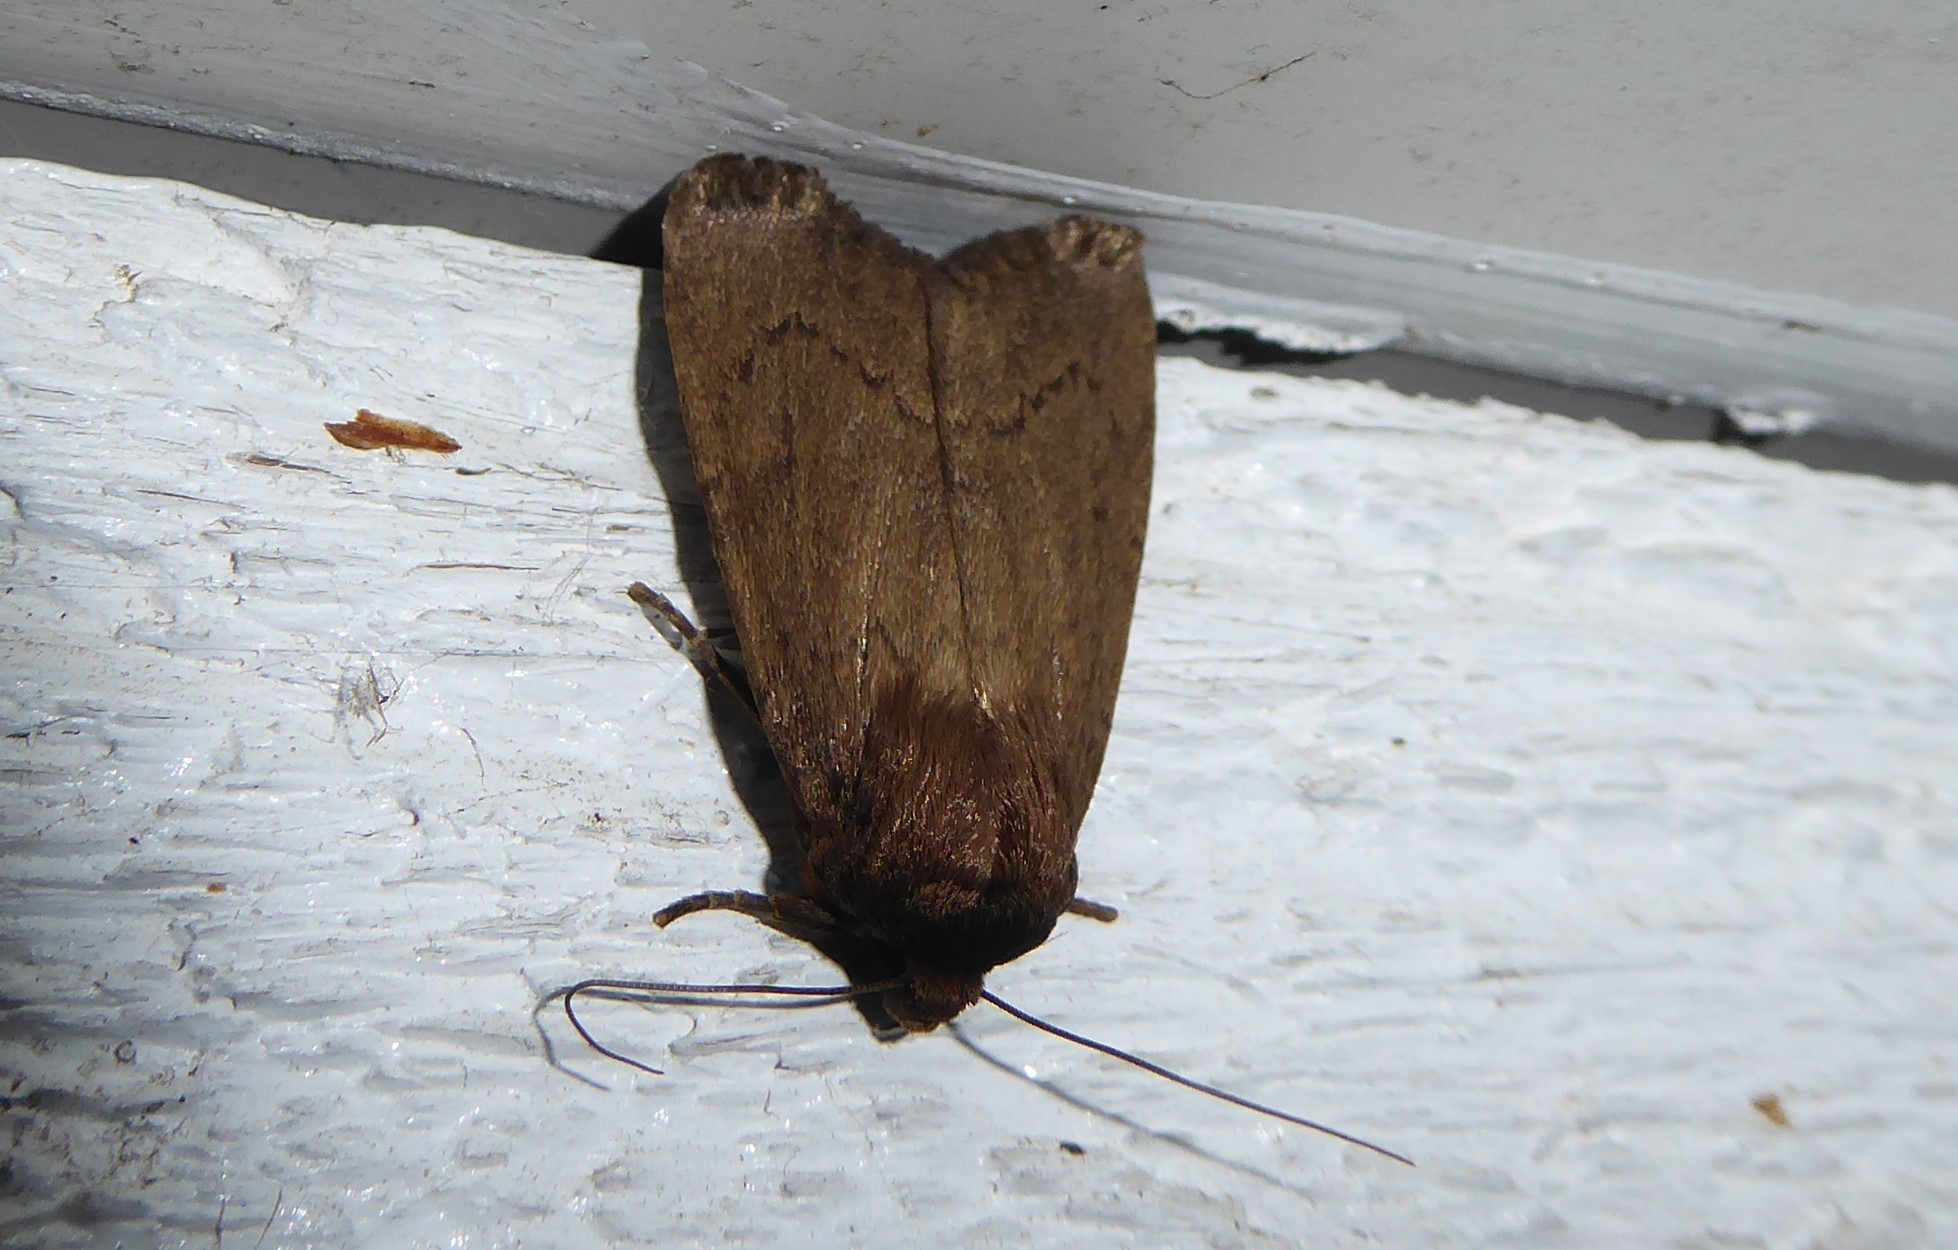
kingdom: Animalia
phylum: Arthropoda
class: Insecta
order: Lepidoptera
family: Noctuidae
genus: Bityla
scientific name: Bityla defigurata
